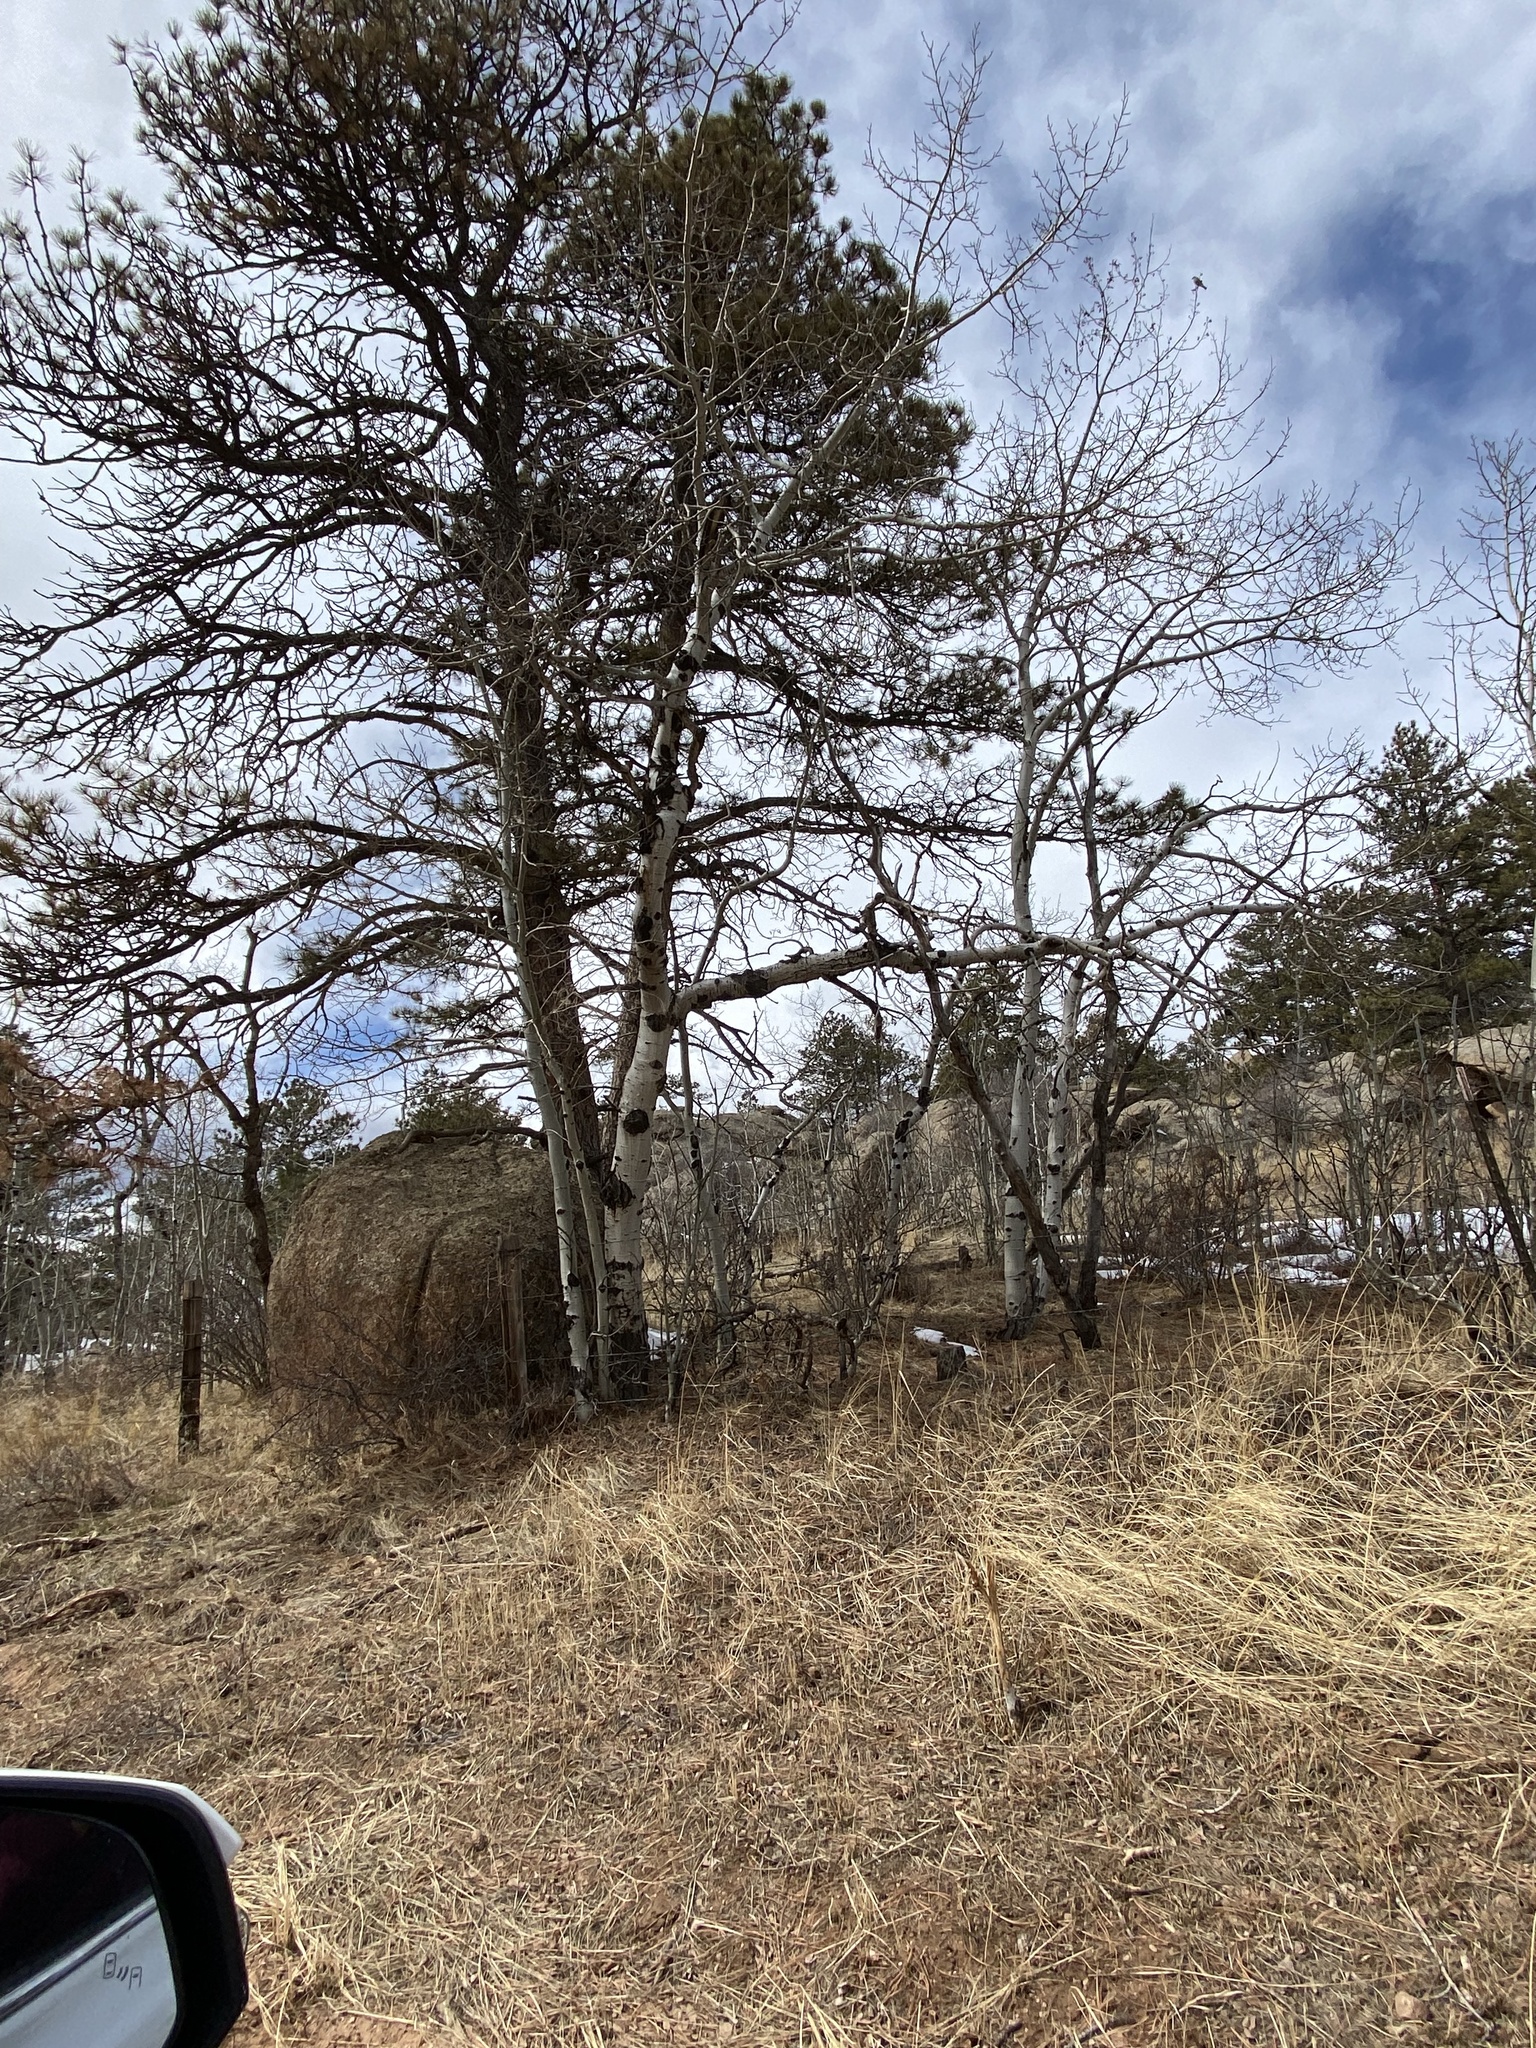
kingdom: Plantae
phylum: Tracheophyta
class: Magnoliopsida
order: Malpighiales
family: Salicaceae
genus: Populus
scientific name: Populus tremuloides
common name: Quaking aspen
